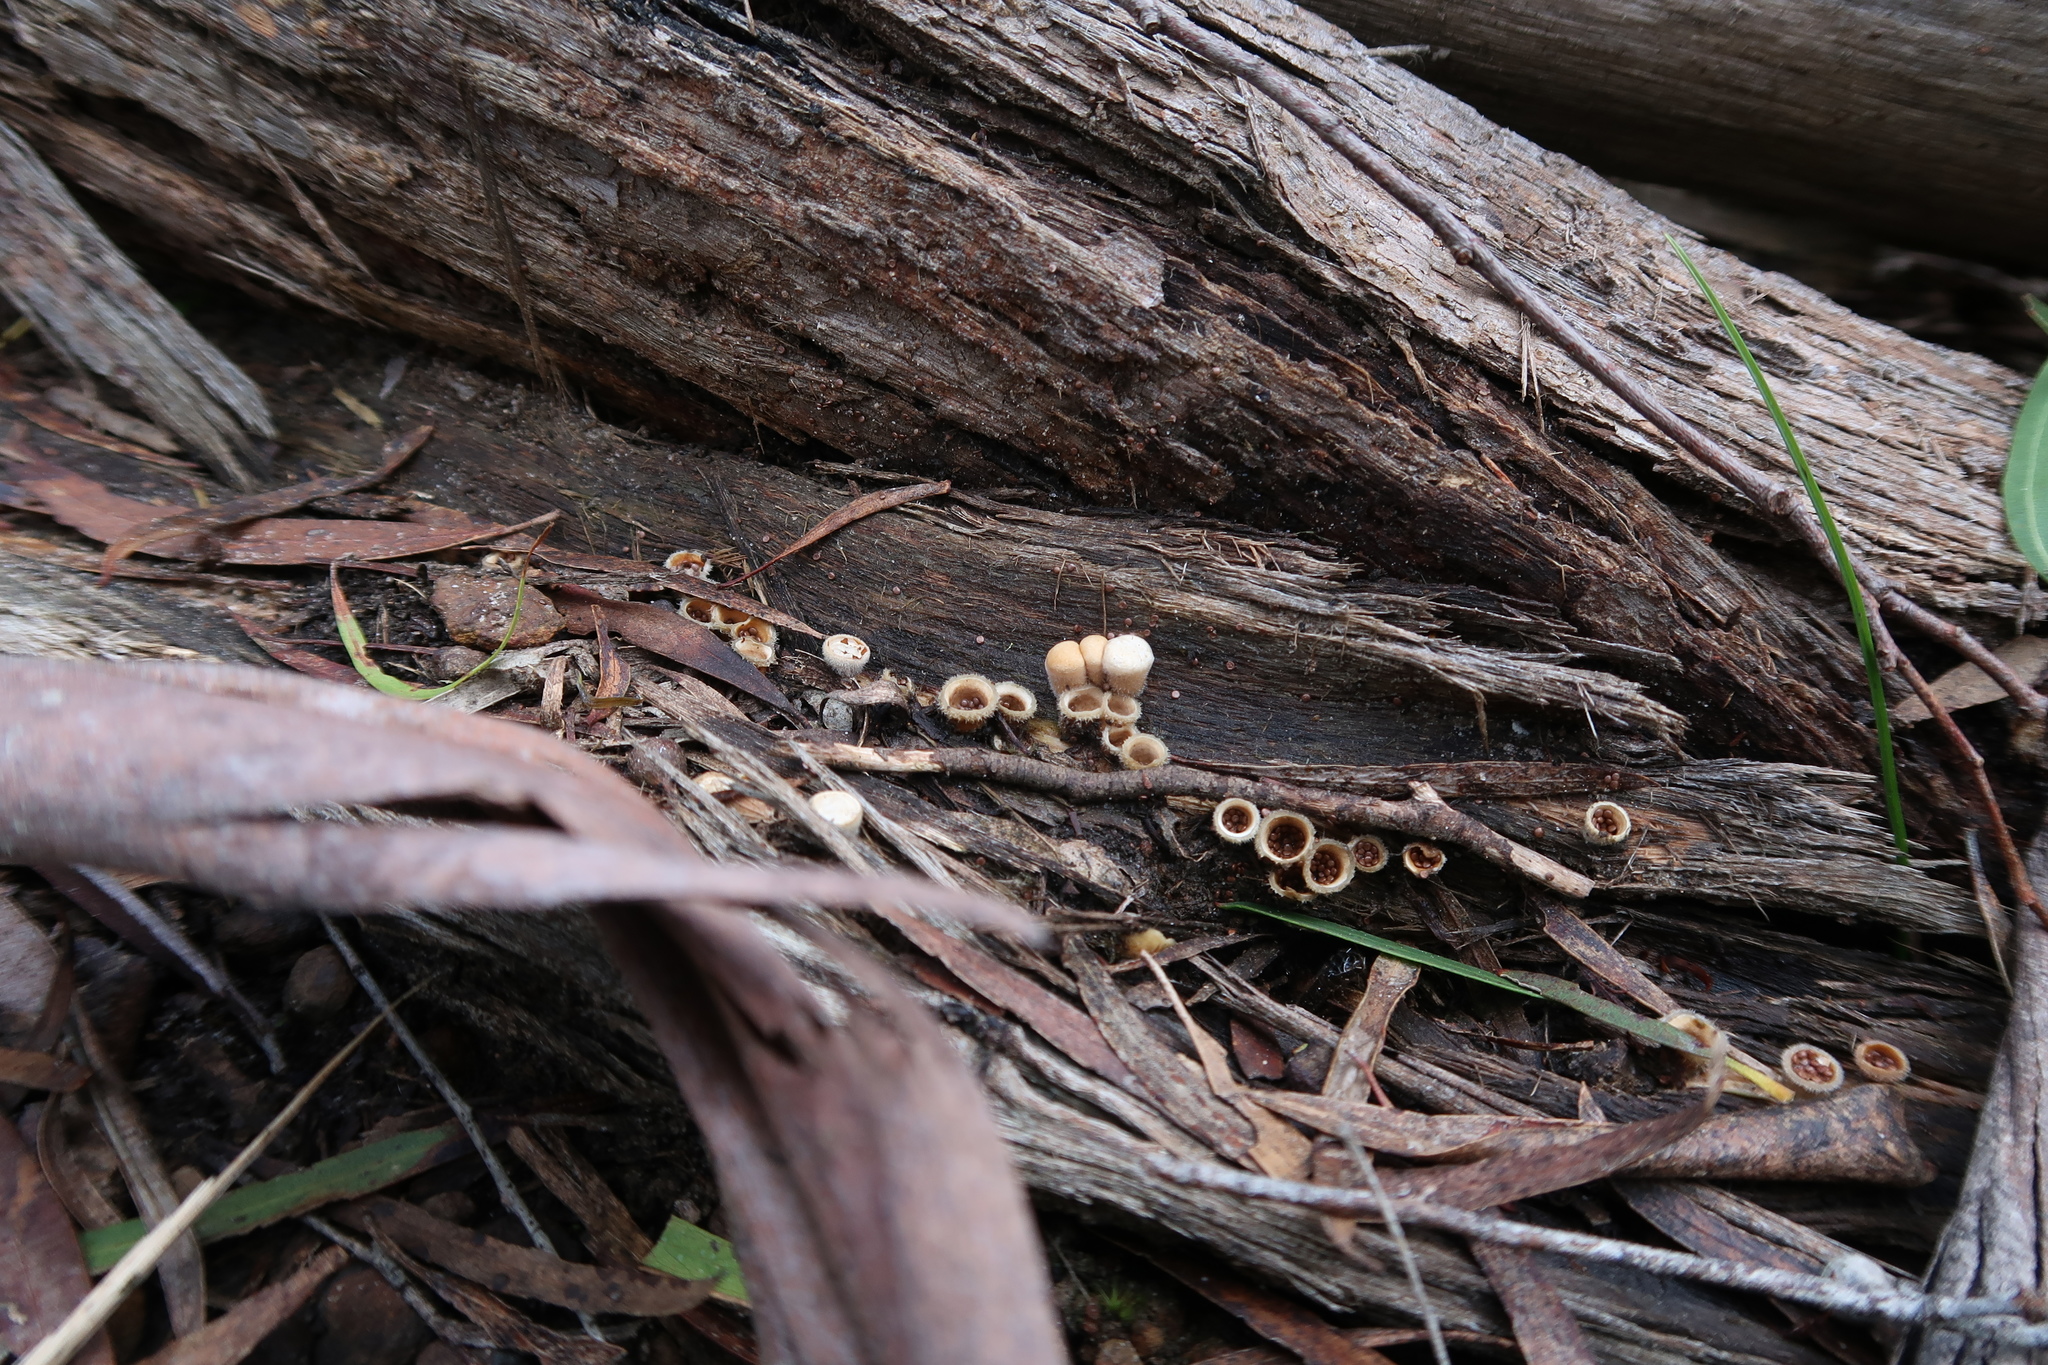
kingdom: Fungi
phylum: Basidiomycota
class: Agaricomycetes
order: Agaricales
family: Agaricaceae
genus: Nidula
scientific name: Nidula niveotomentosa
